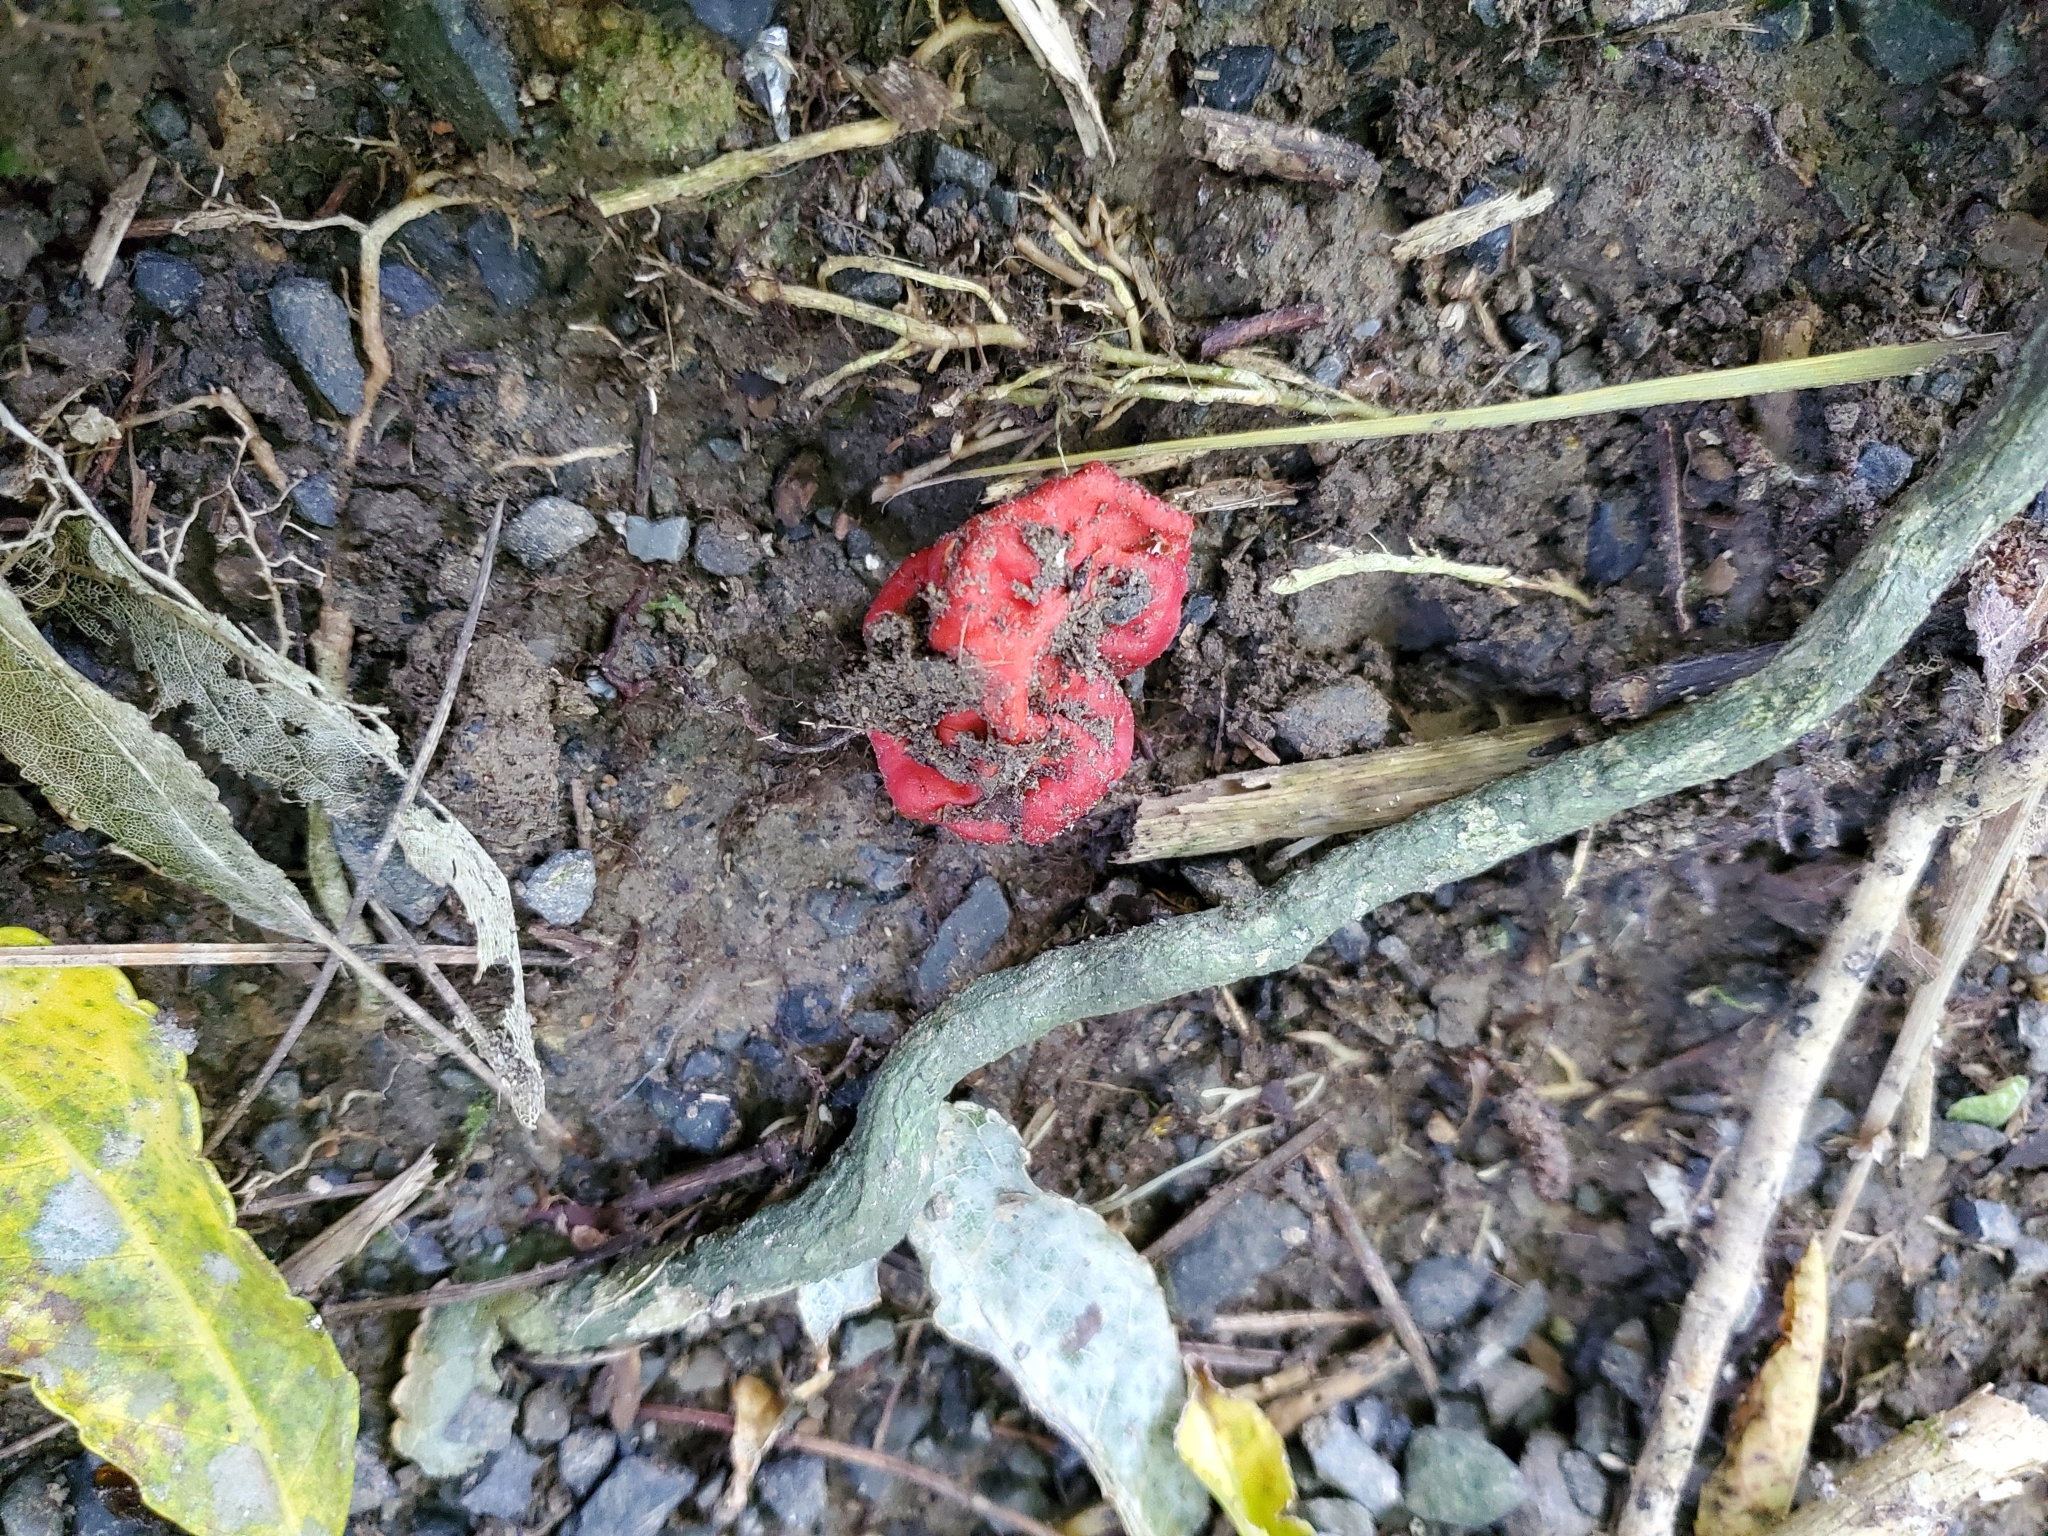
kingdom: Fungi
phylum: Ascomycota
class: Pezizomycetes
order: Pezizales
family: Pyronemataceae
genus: Paurocotylis
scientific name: Paurocotylis pila
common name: Scarlet berry truffle
